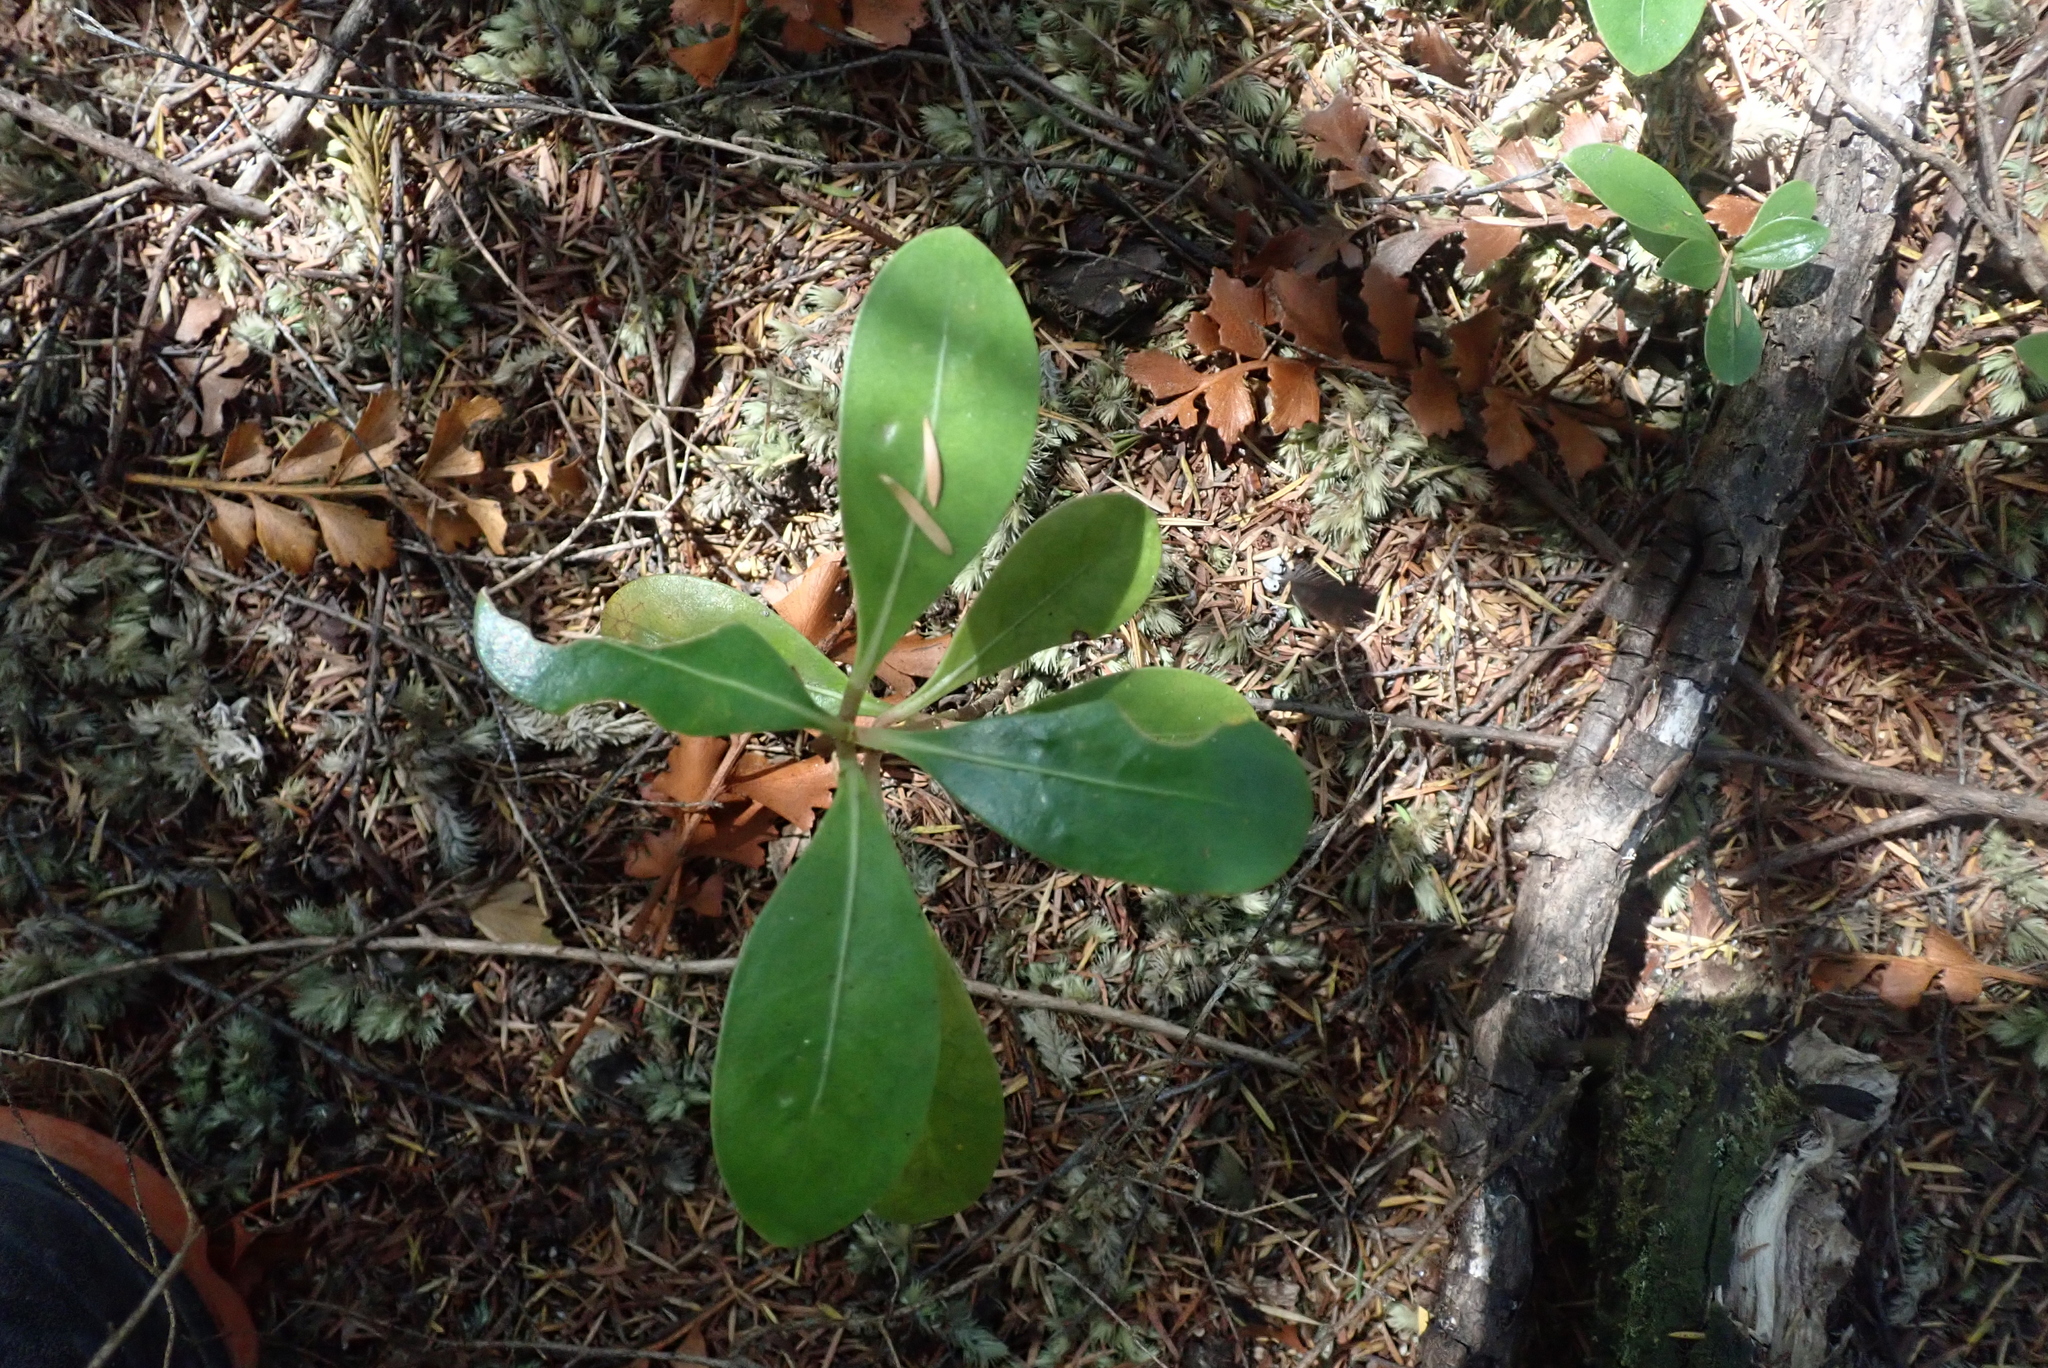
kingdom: Plantae
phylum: Tracheophyta
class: Magnoliopsida
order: Gentianales
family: Rubiaceae
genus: Coprosma
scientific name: Coprosma lucida
